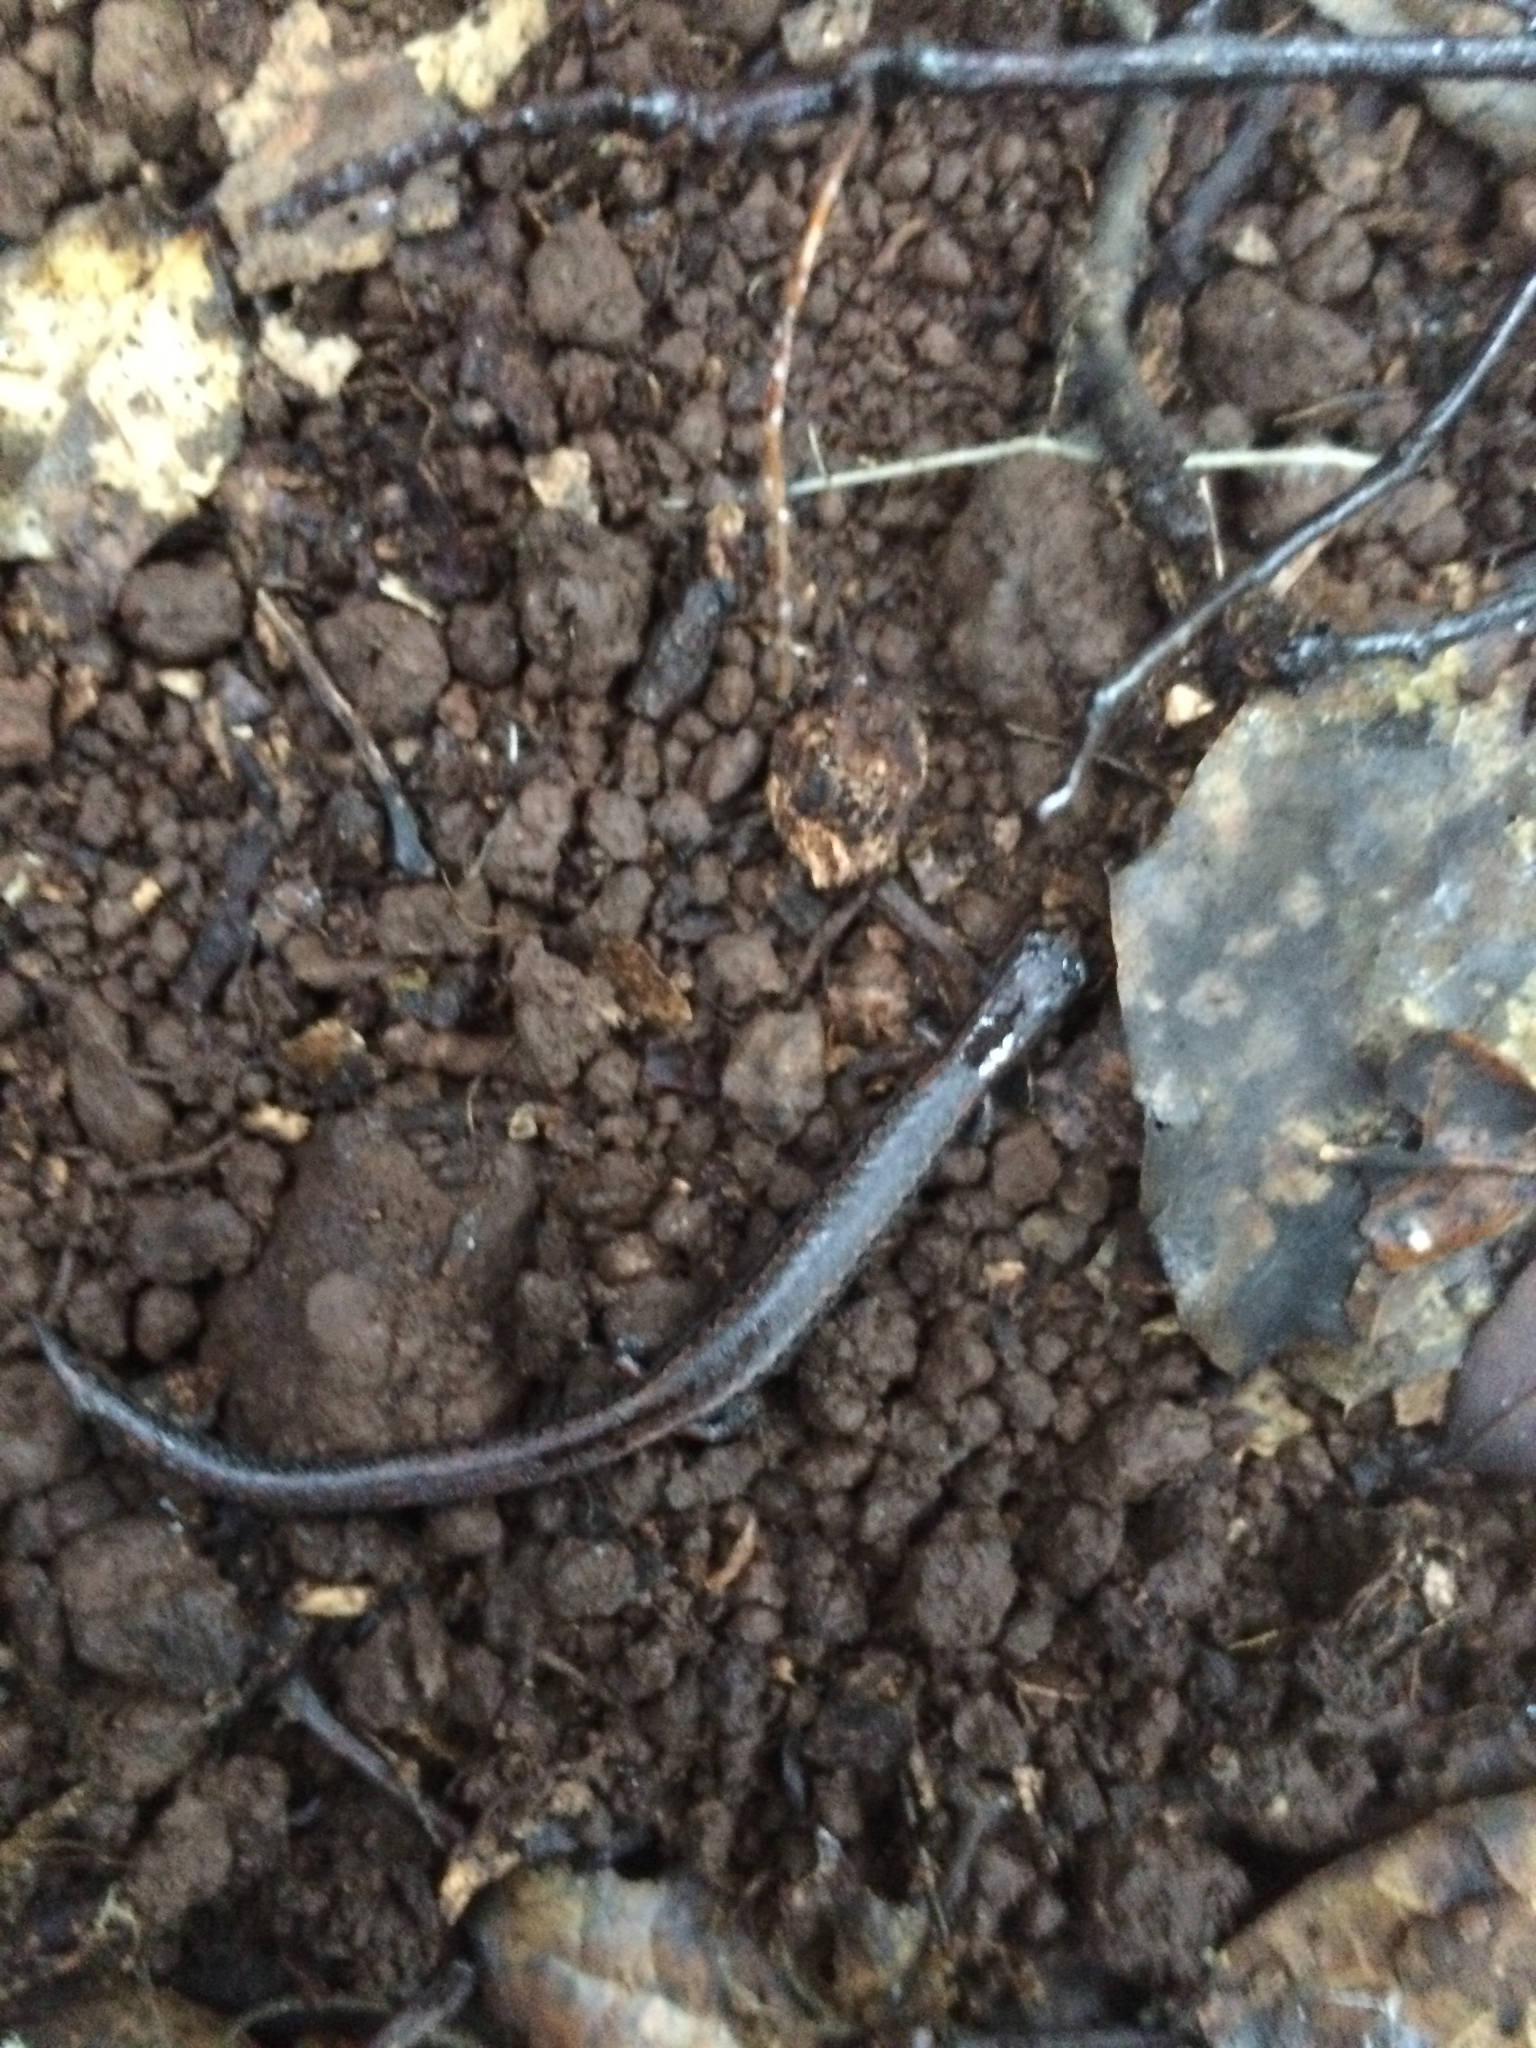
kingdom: Animalia
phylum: Chordata
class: Amphibia
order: Caudata
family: Plethodontidae
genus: Batrachoseps
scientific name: Batrachoseps attenuatus
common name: California slender salamander
